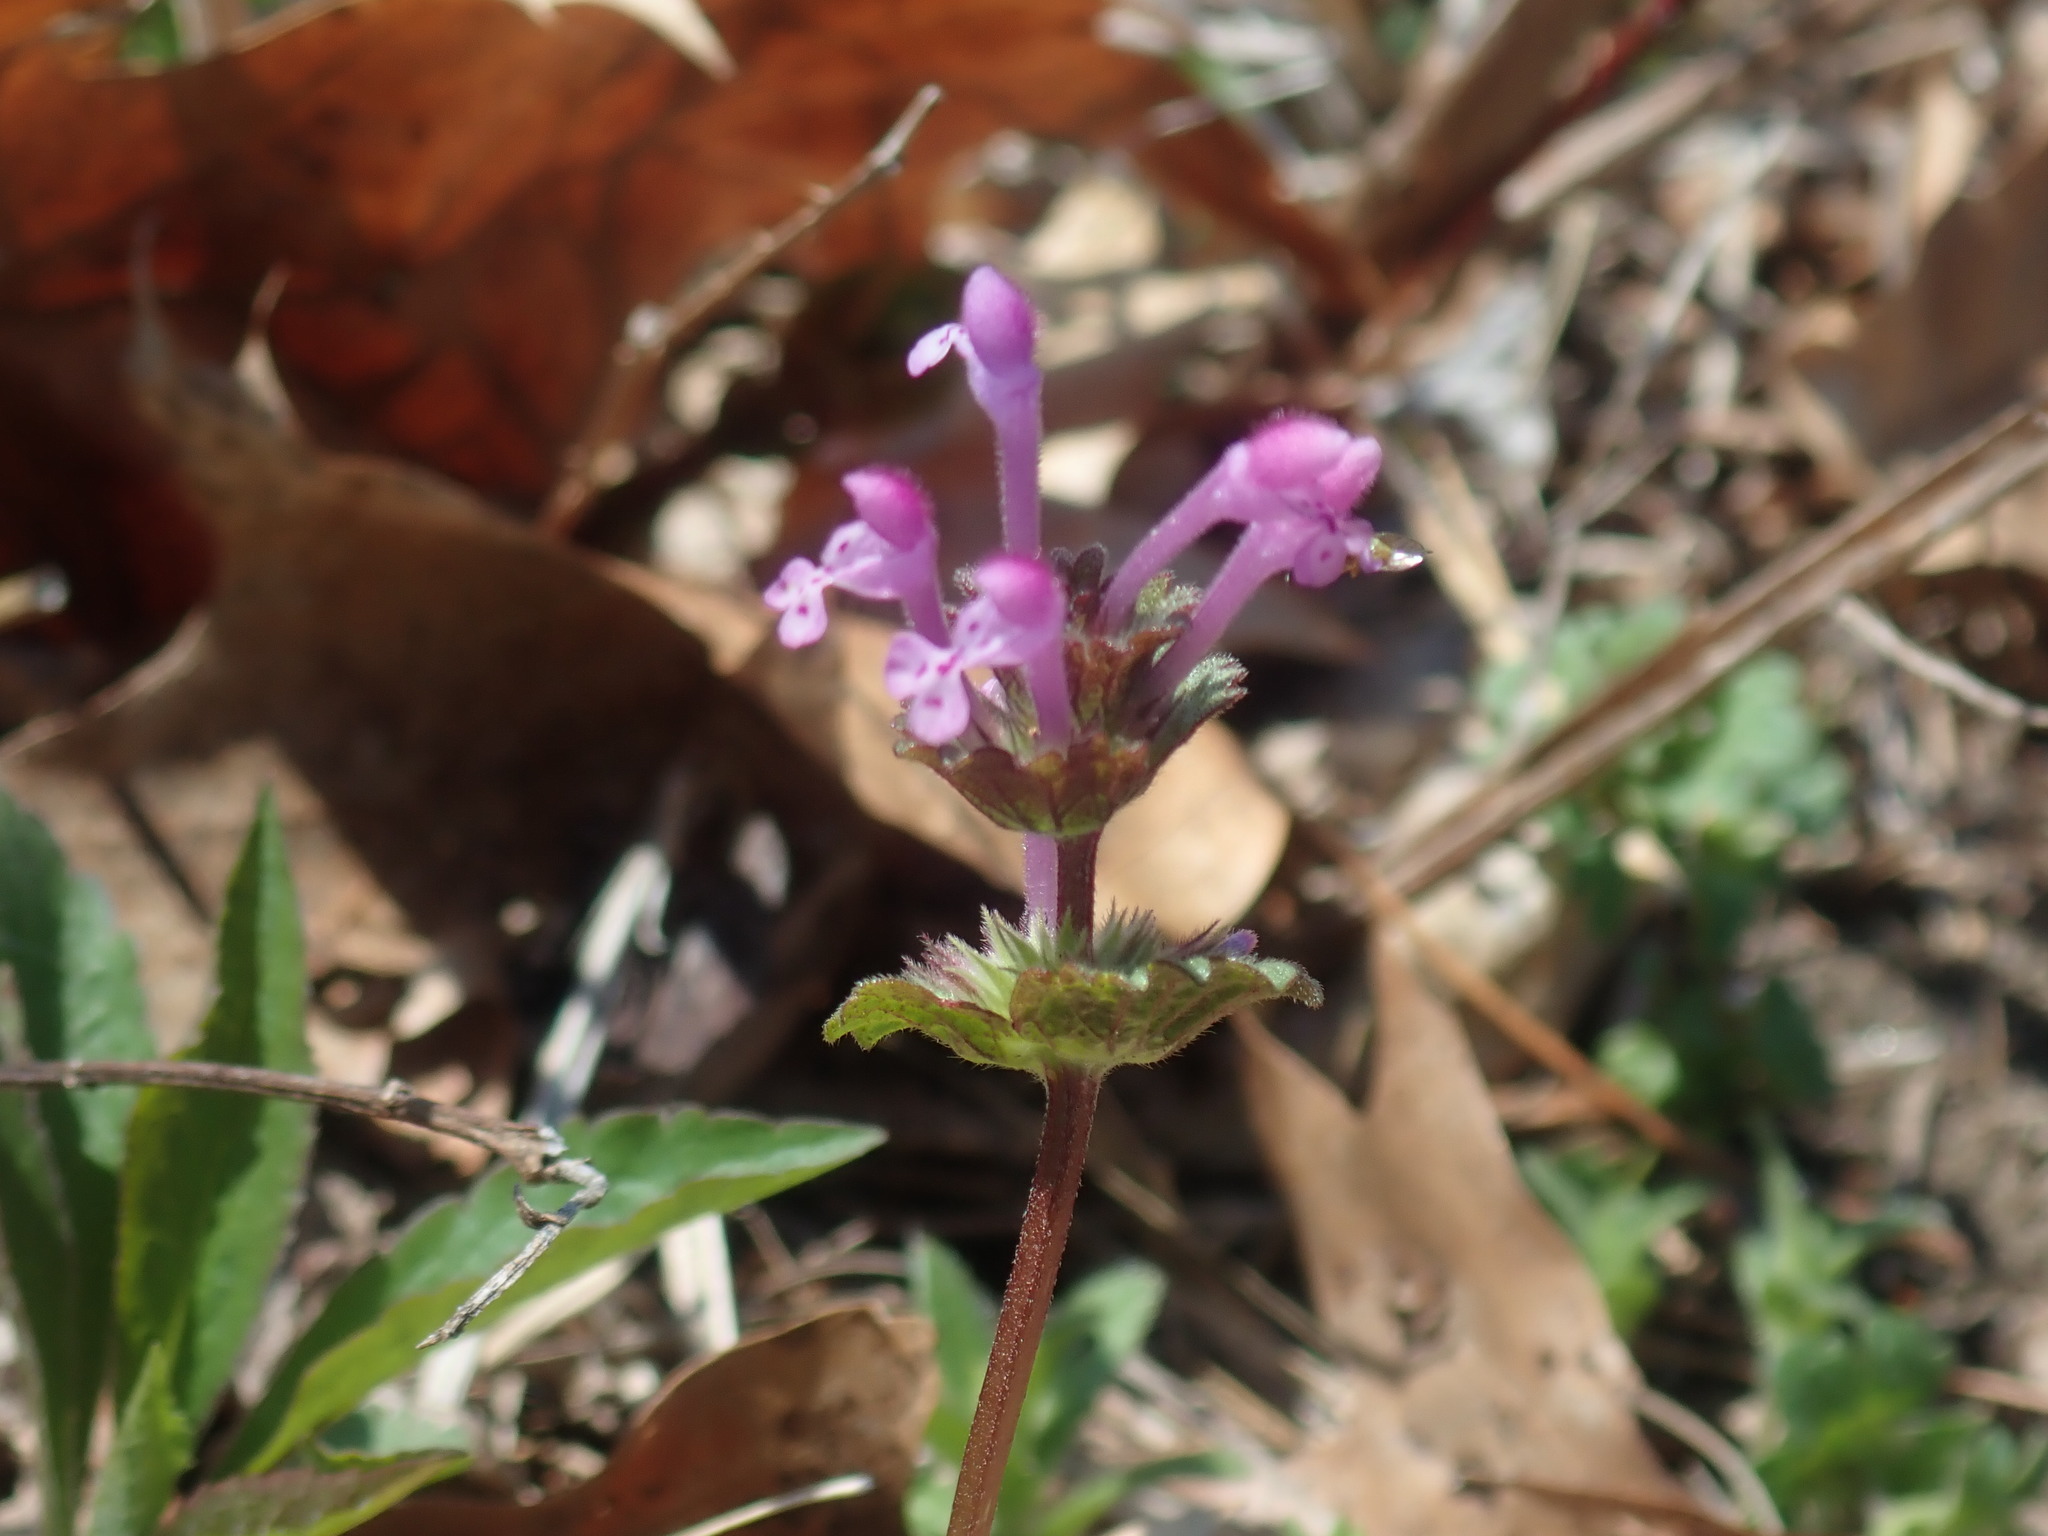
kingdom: Plantae
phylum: Tracheophyta
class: Magnoliopsida
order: Lamiales
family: Lamiaceae
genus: Lamium
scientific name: Lamium amplexicaule
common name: Henbit dead-nettle
